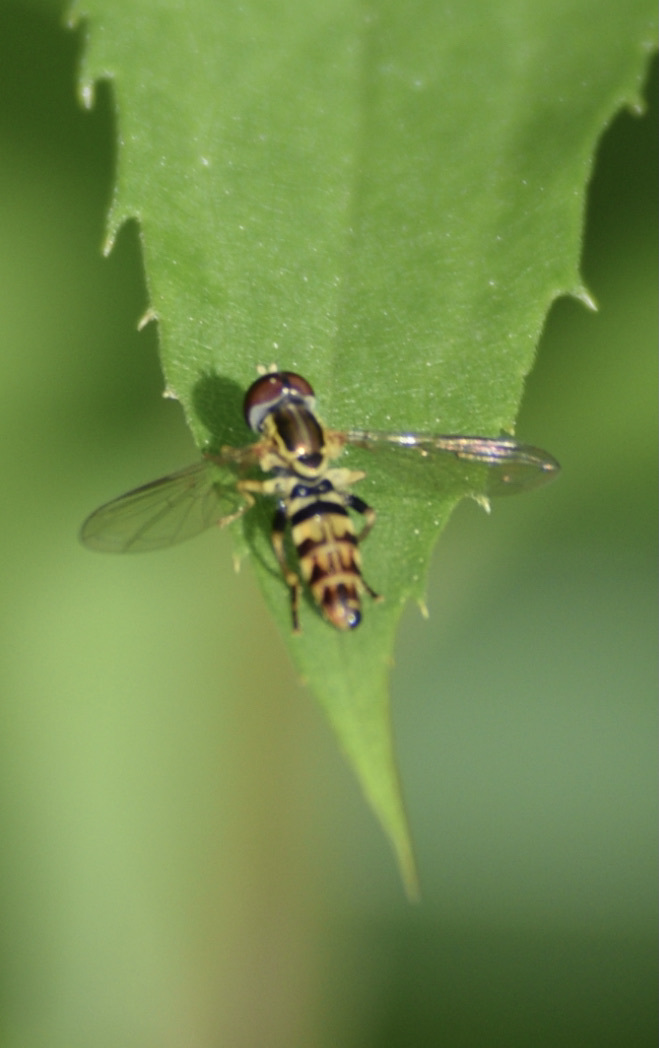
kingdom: Animalia
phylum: Arthropoda
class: Insecta
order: Diptera
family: Syrphidae
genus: Toxomerus
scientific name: Toxomerus geminatus
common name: Eastern calligrapher
